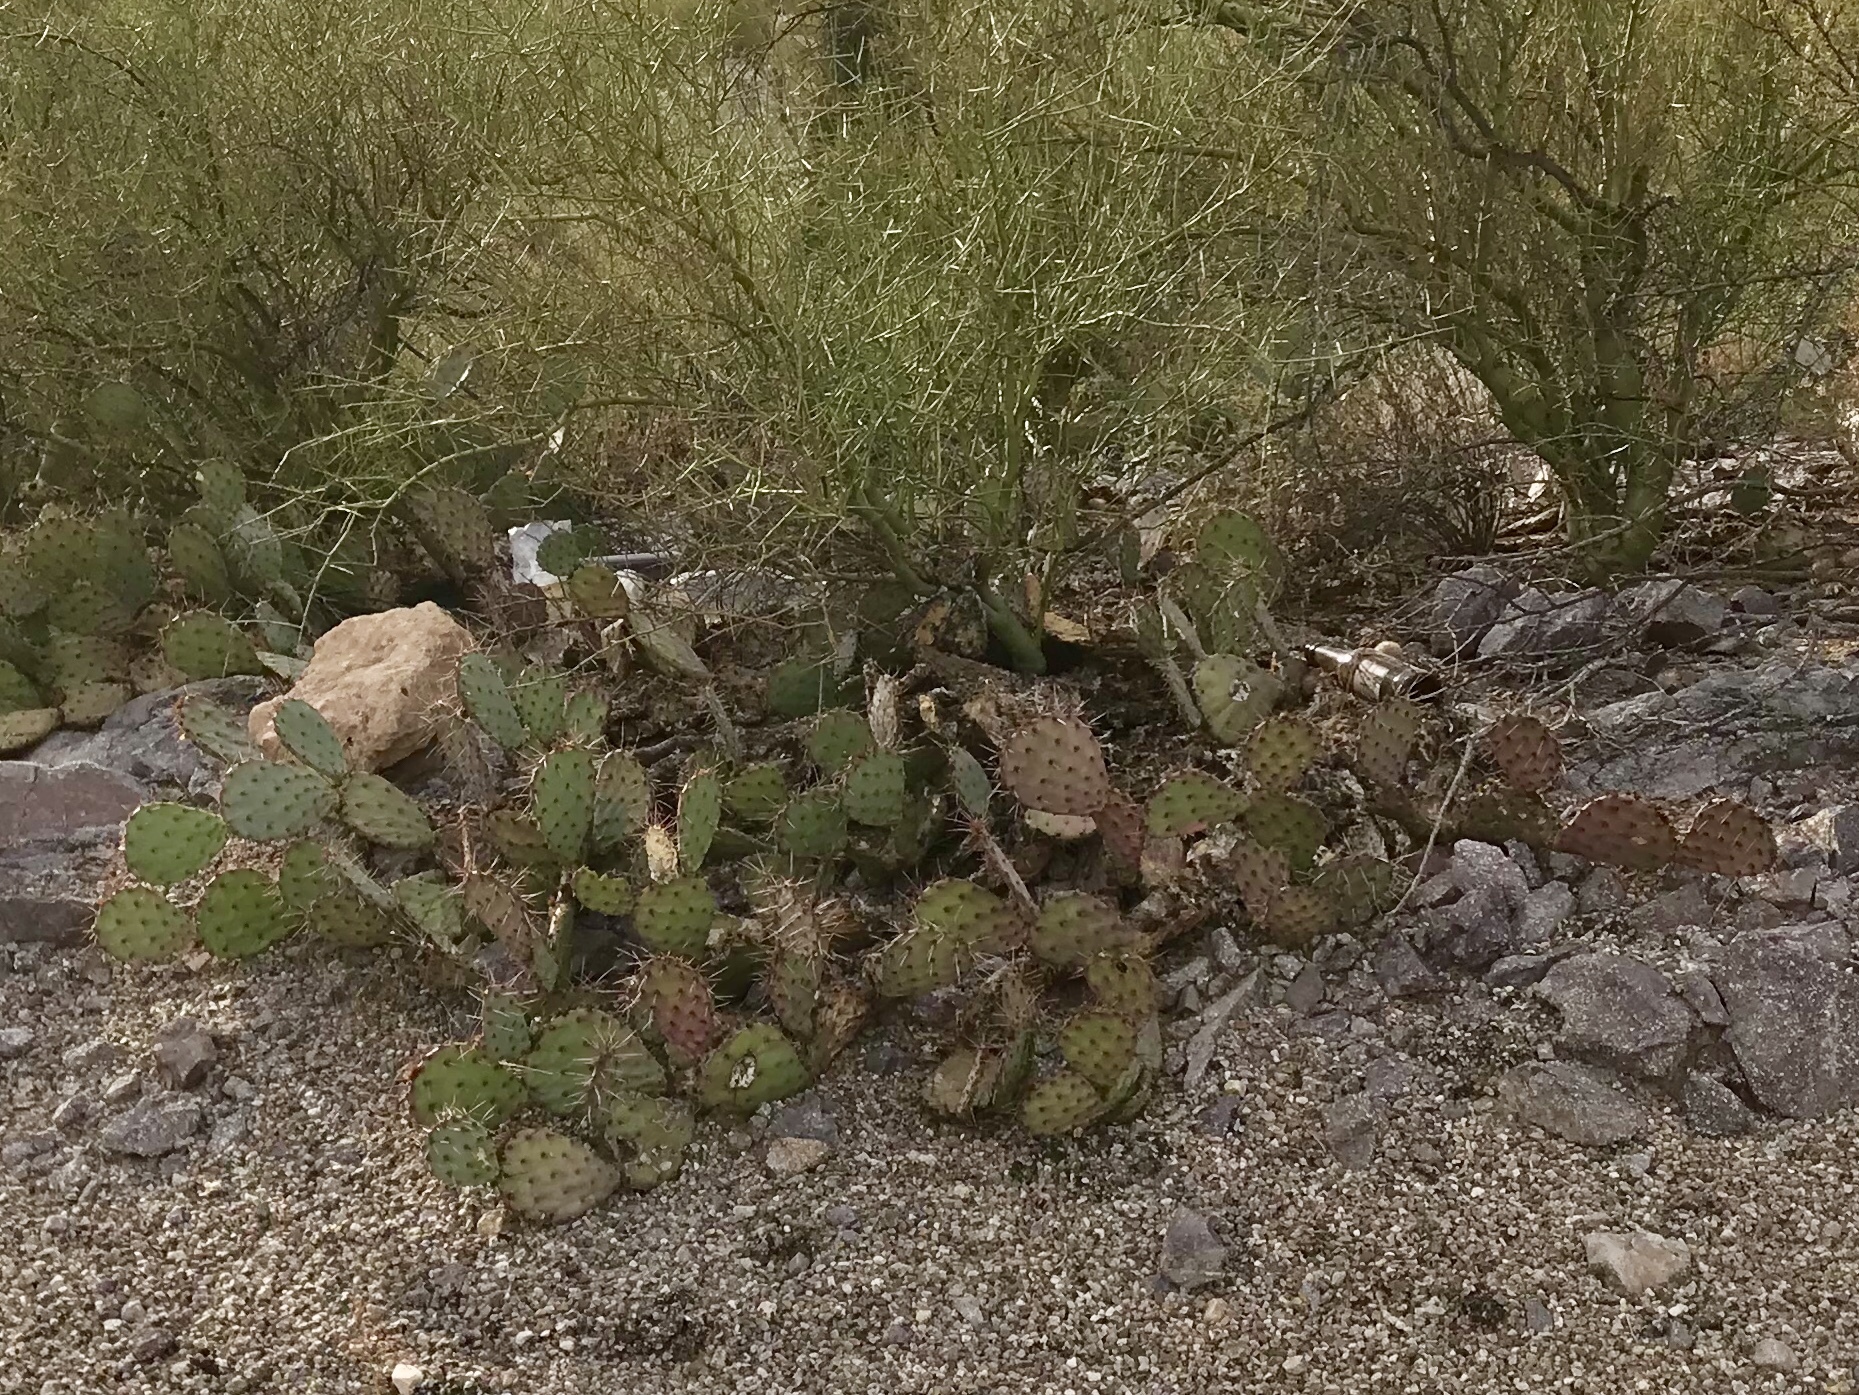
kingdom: Plantae
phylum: Tracheophyta
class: Magnoliopsida
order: Caryophyllales
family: Cactaceae
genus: Opuntia
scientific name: Opuntia phaeacantha
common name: New mexico prickly-pear
